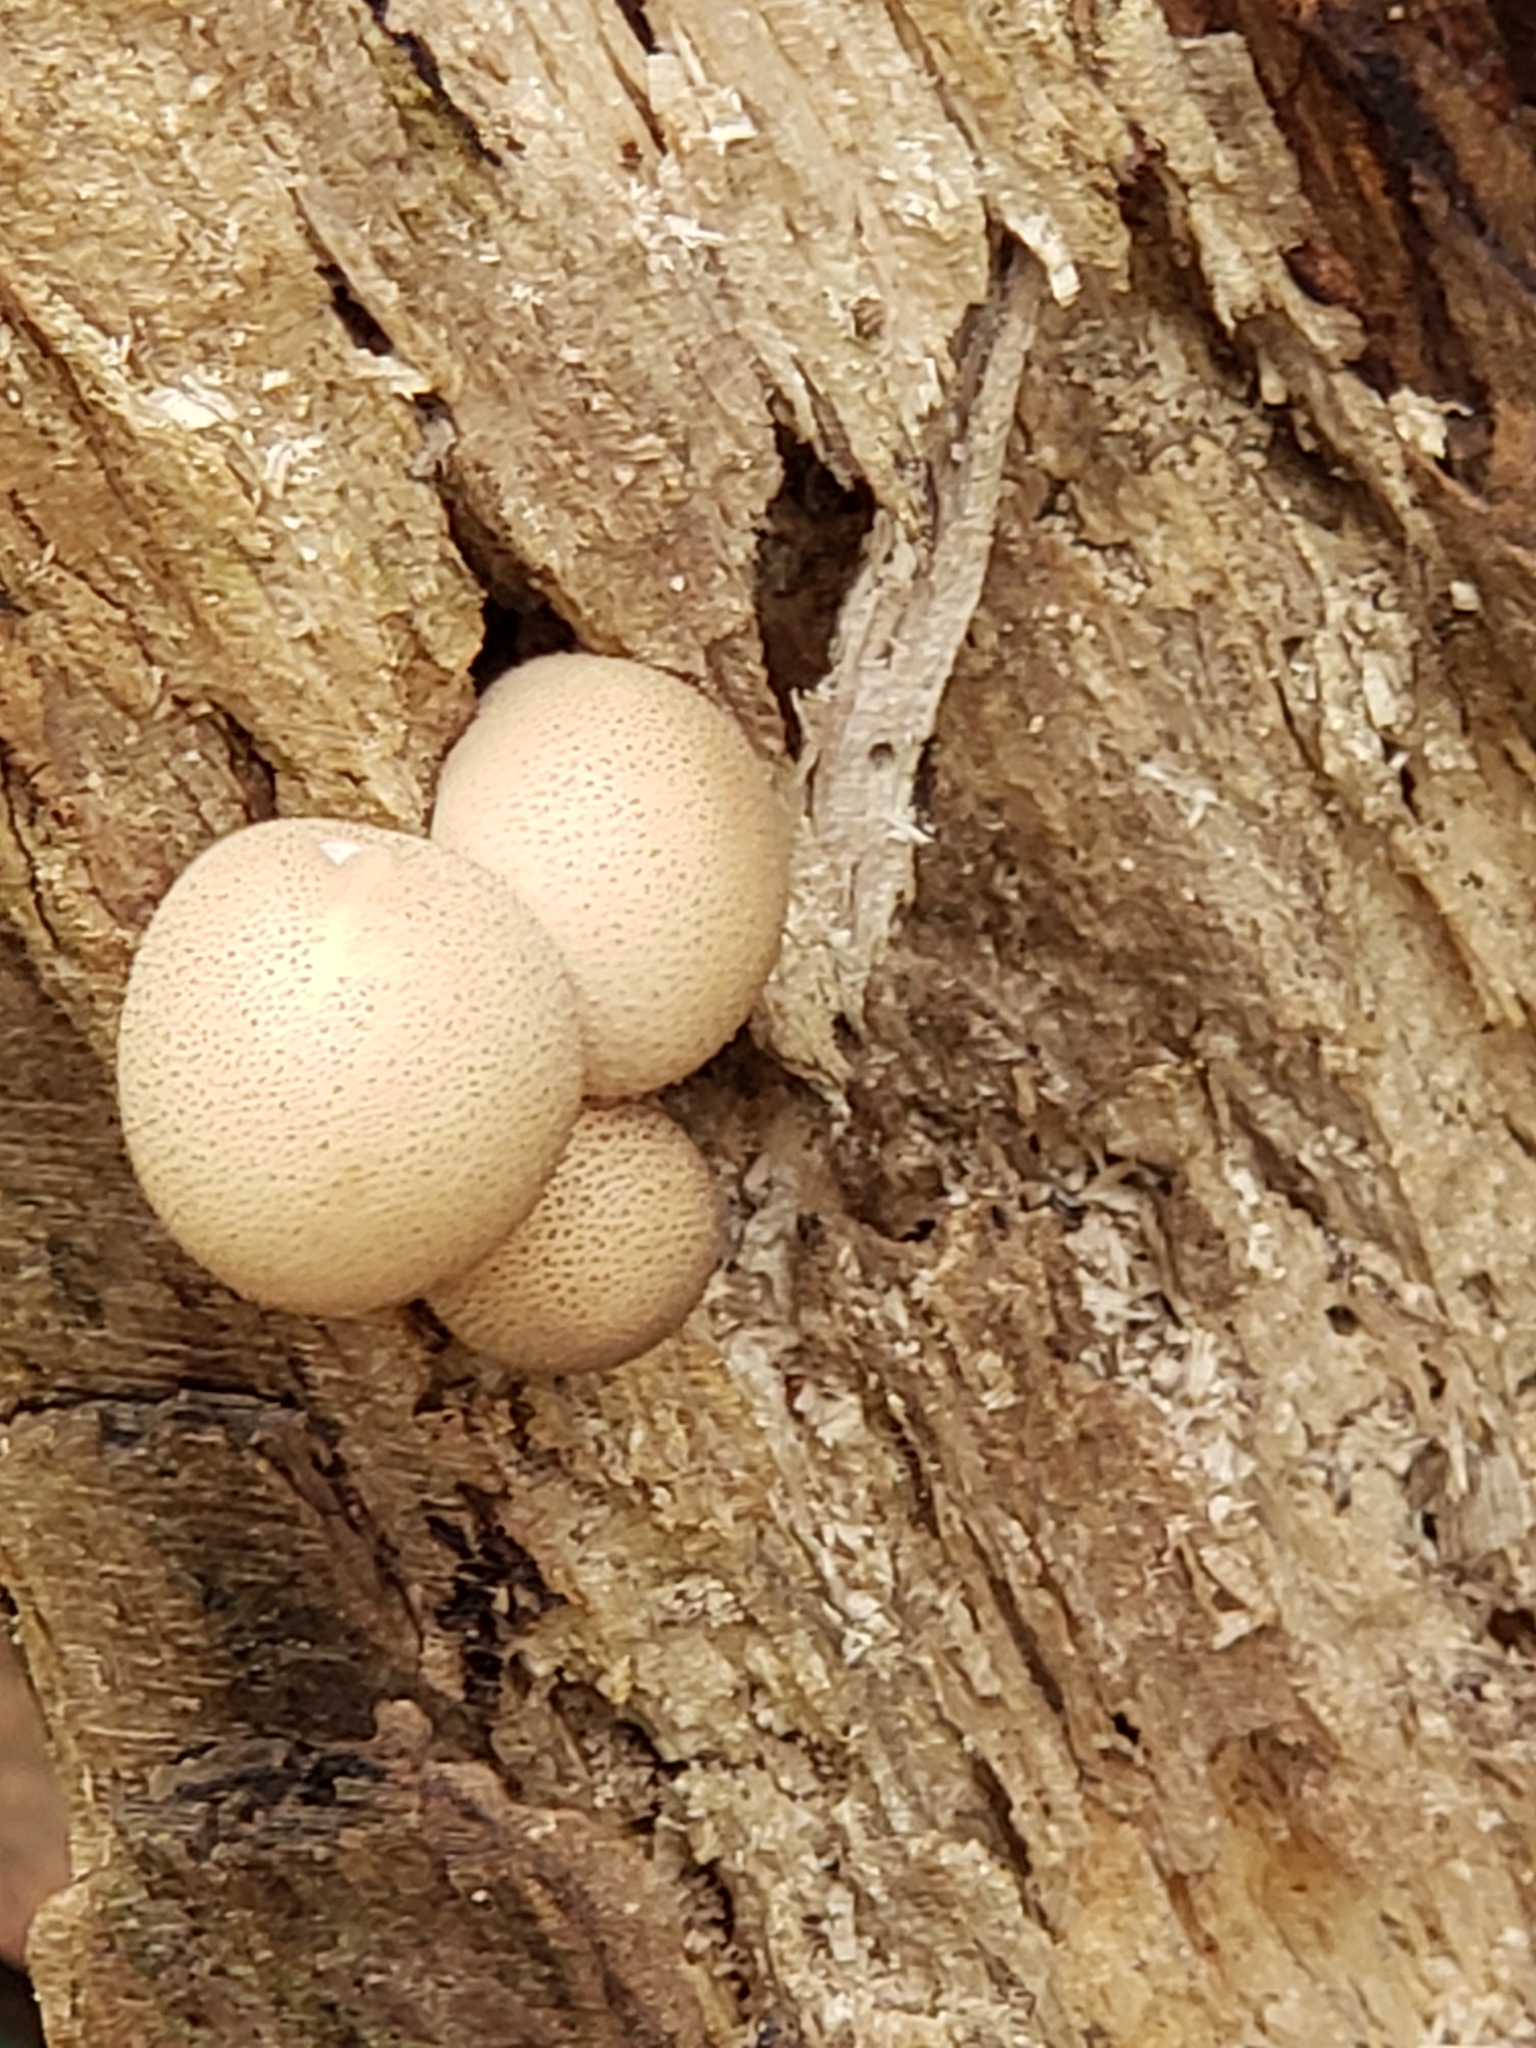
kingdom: Fungi
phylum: Basidiomycota
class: Agaricomycetes
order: Agaricales
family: Lycoperdaceae
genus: Apioperdon
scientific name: Apioperdon pyriforme
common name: Pear-shaped puffball
